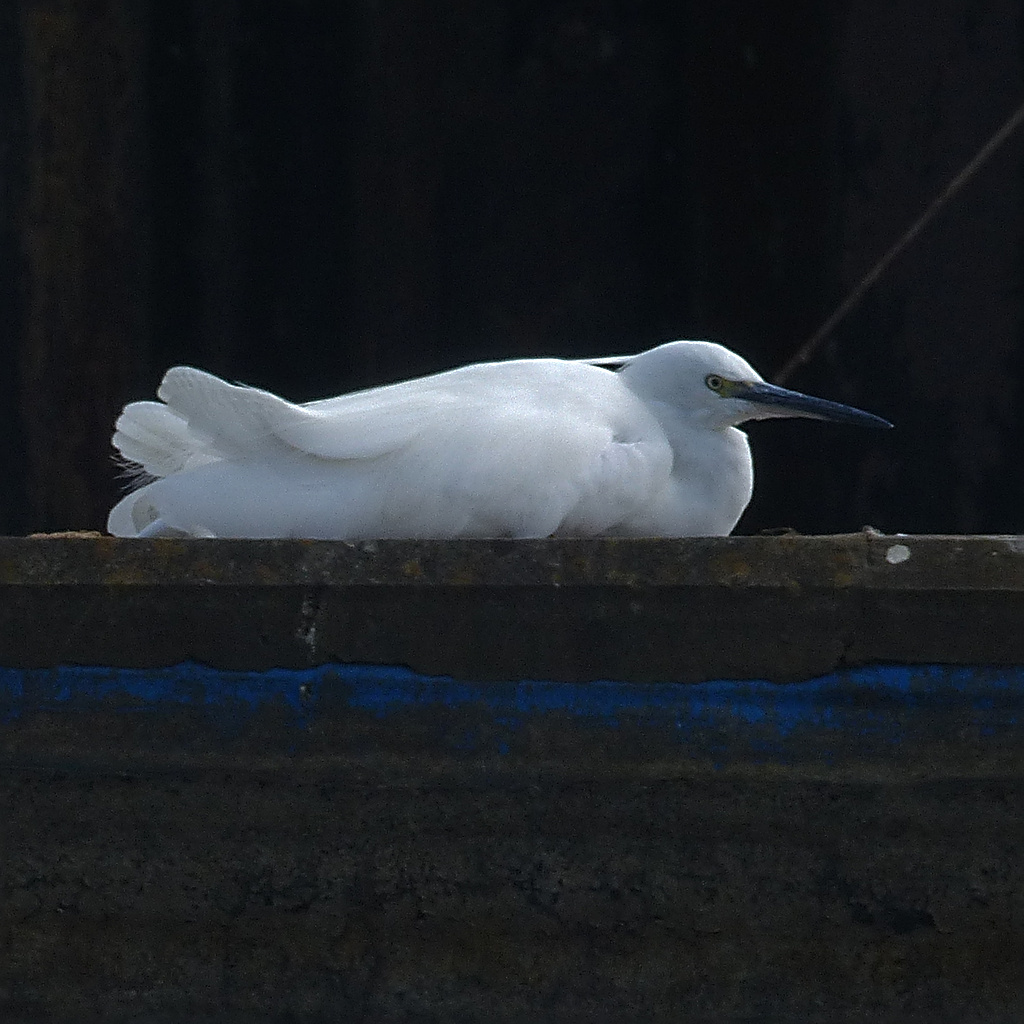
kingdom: Animalia
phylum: Chordata
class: Aves
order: Pelecaniformes
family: Ardeidae
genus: Egretta
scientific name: Egretta garzetta
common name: Little egret
